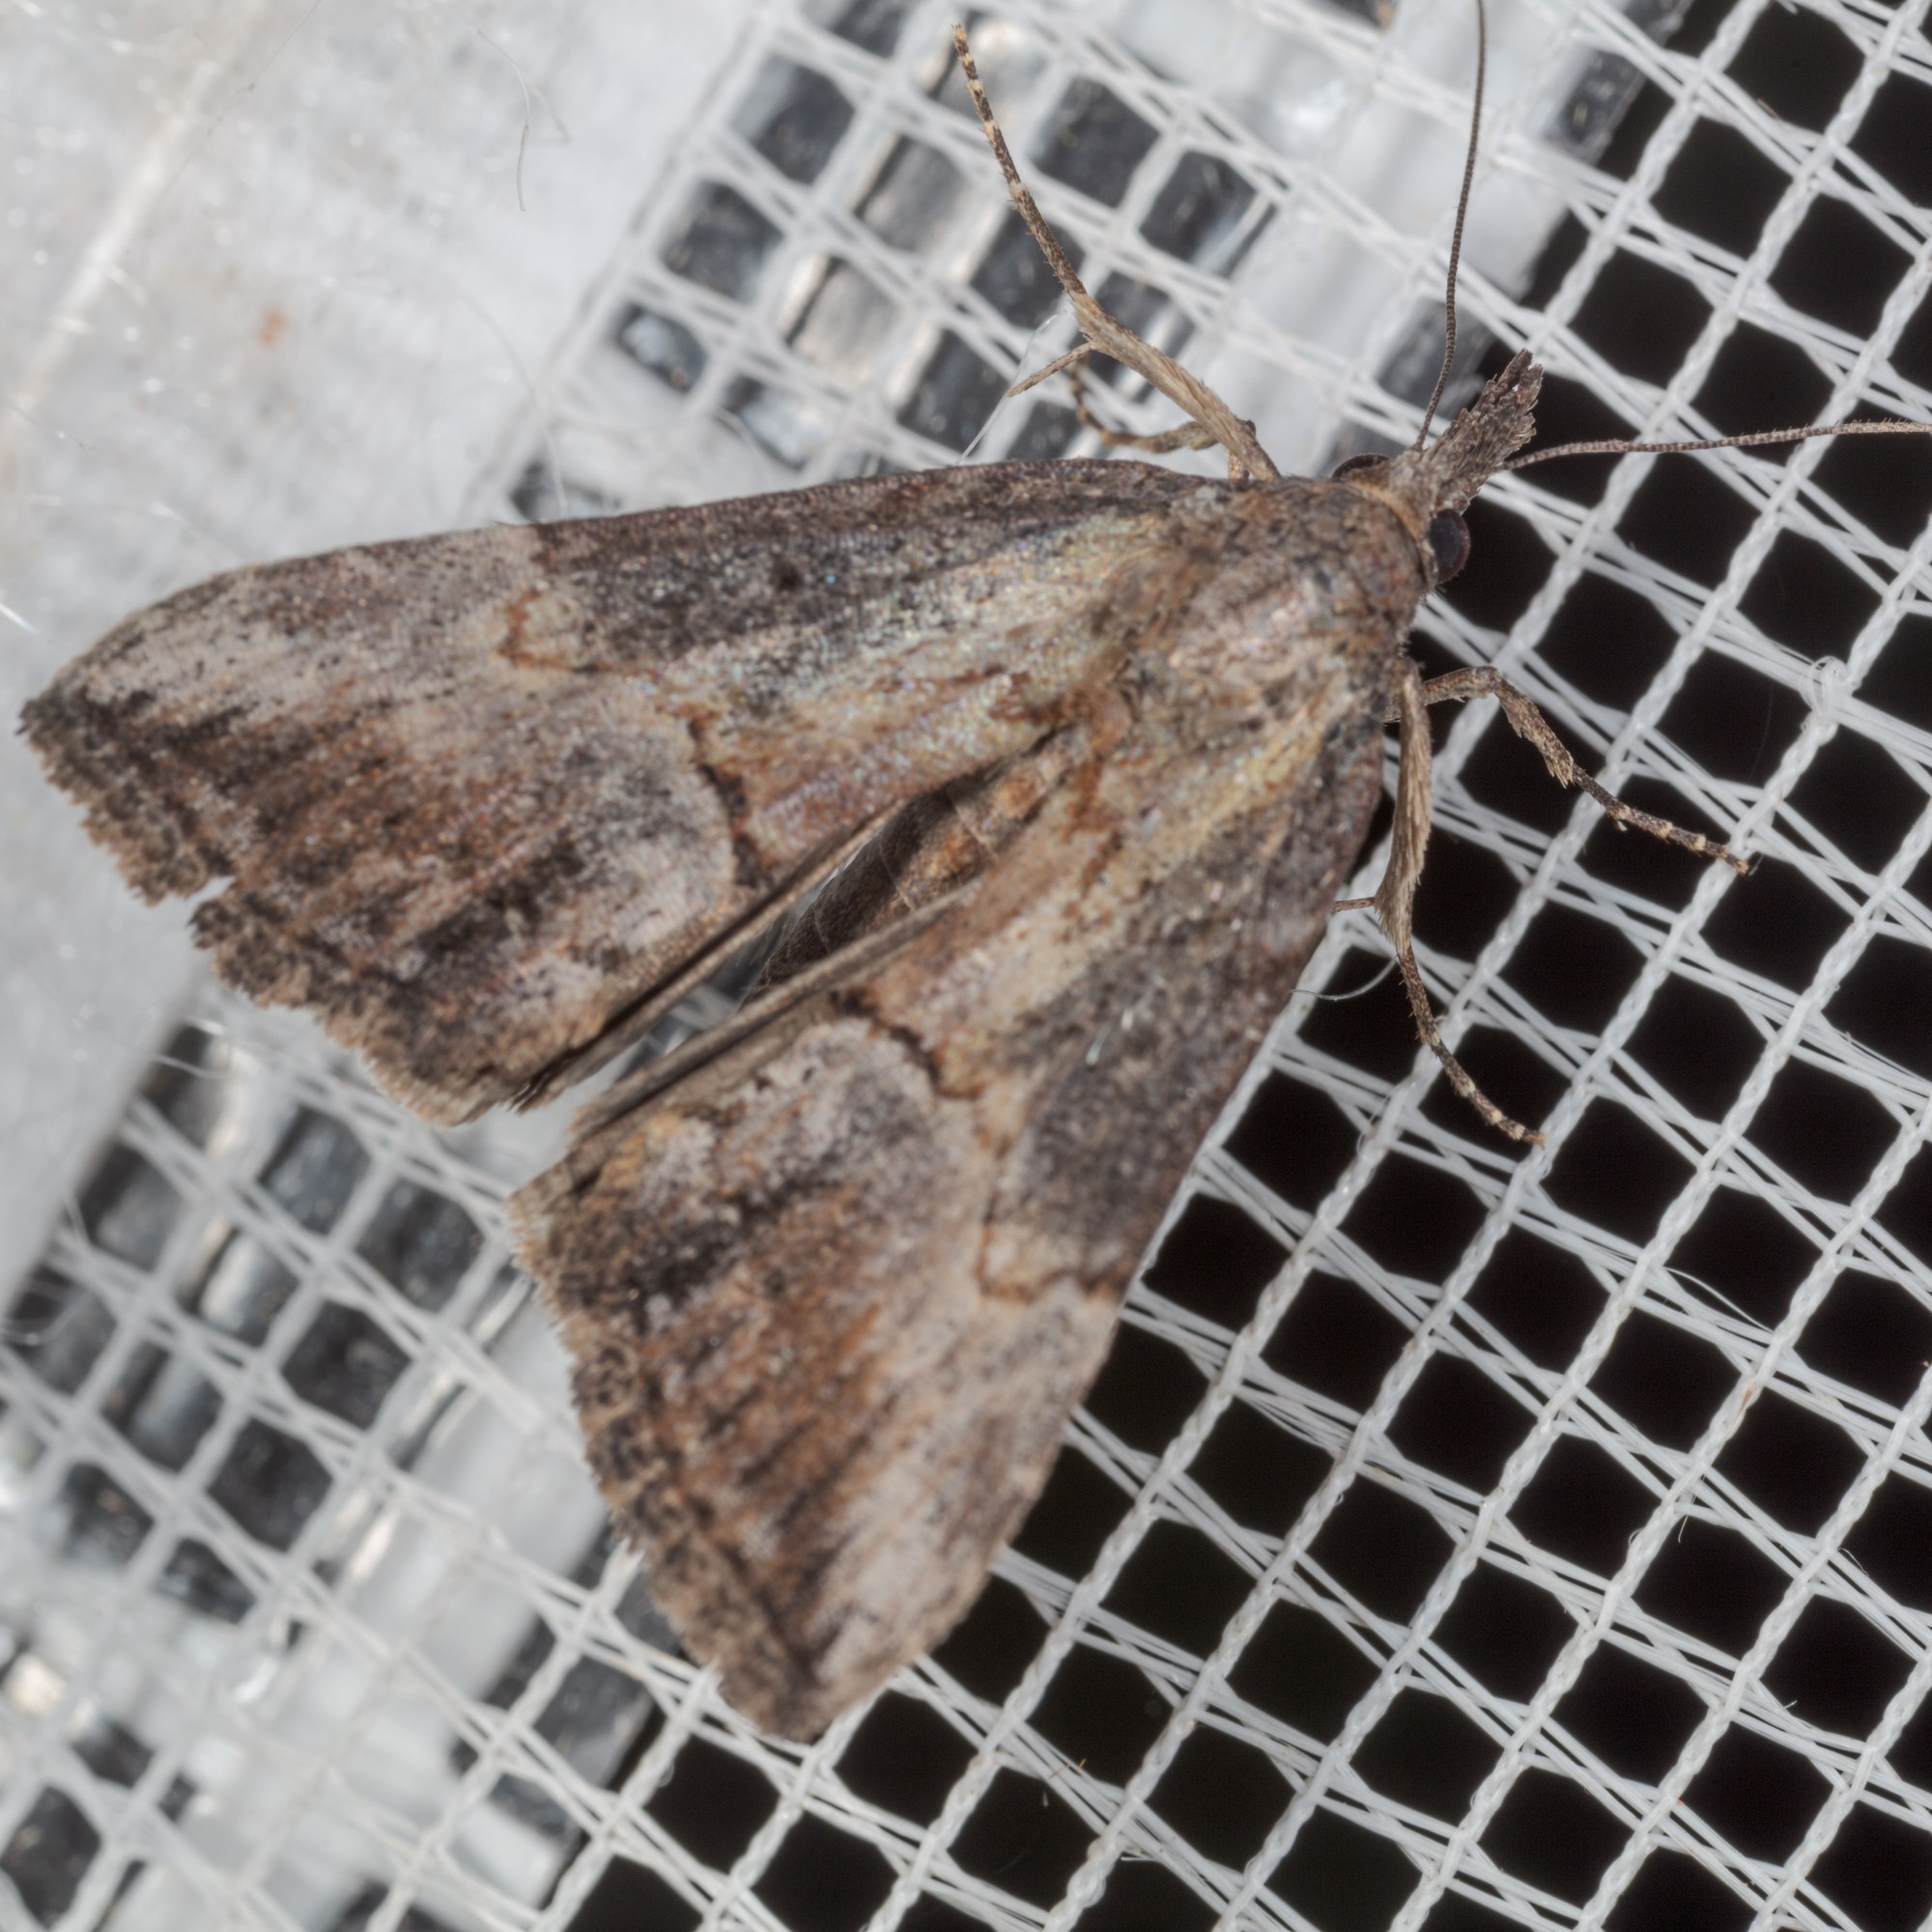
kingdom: Animalia
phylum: Arthropoda
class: Insecta
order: Lepidoptera
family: Erebidae
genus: Hypena
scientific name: Hypena scabra
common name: Green cloverworm
